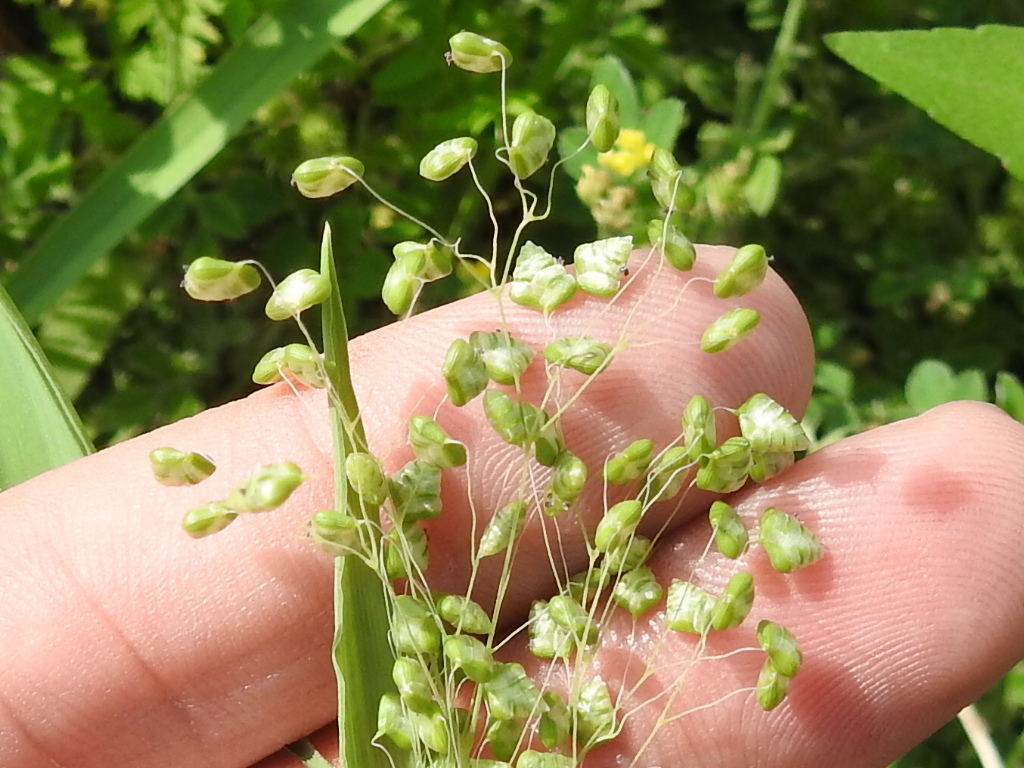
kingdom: Plantae
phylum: Tracheophyta
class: Liliopsida
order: Poales
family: Poaceae
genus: Briza
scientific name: Briza minor
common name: Lesser quaking-grass
